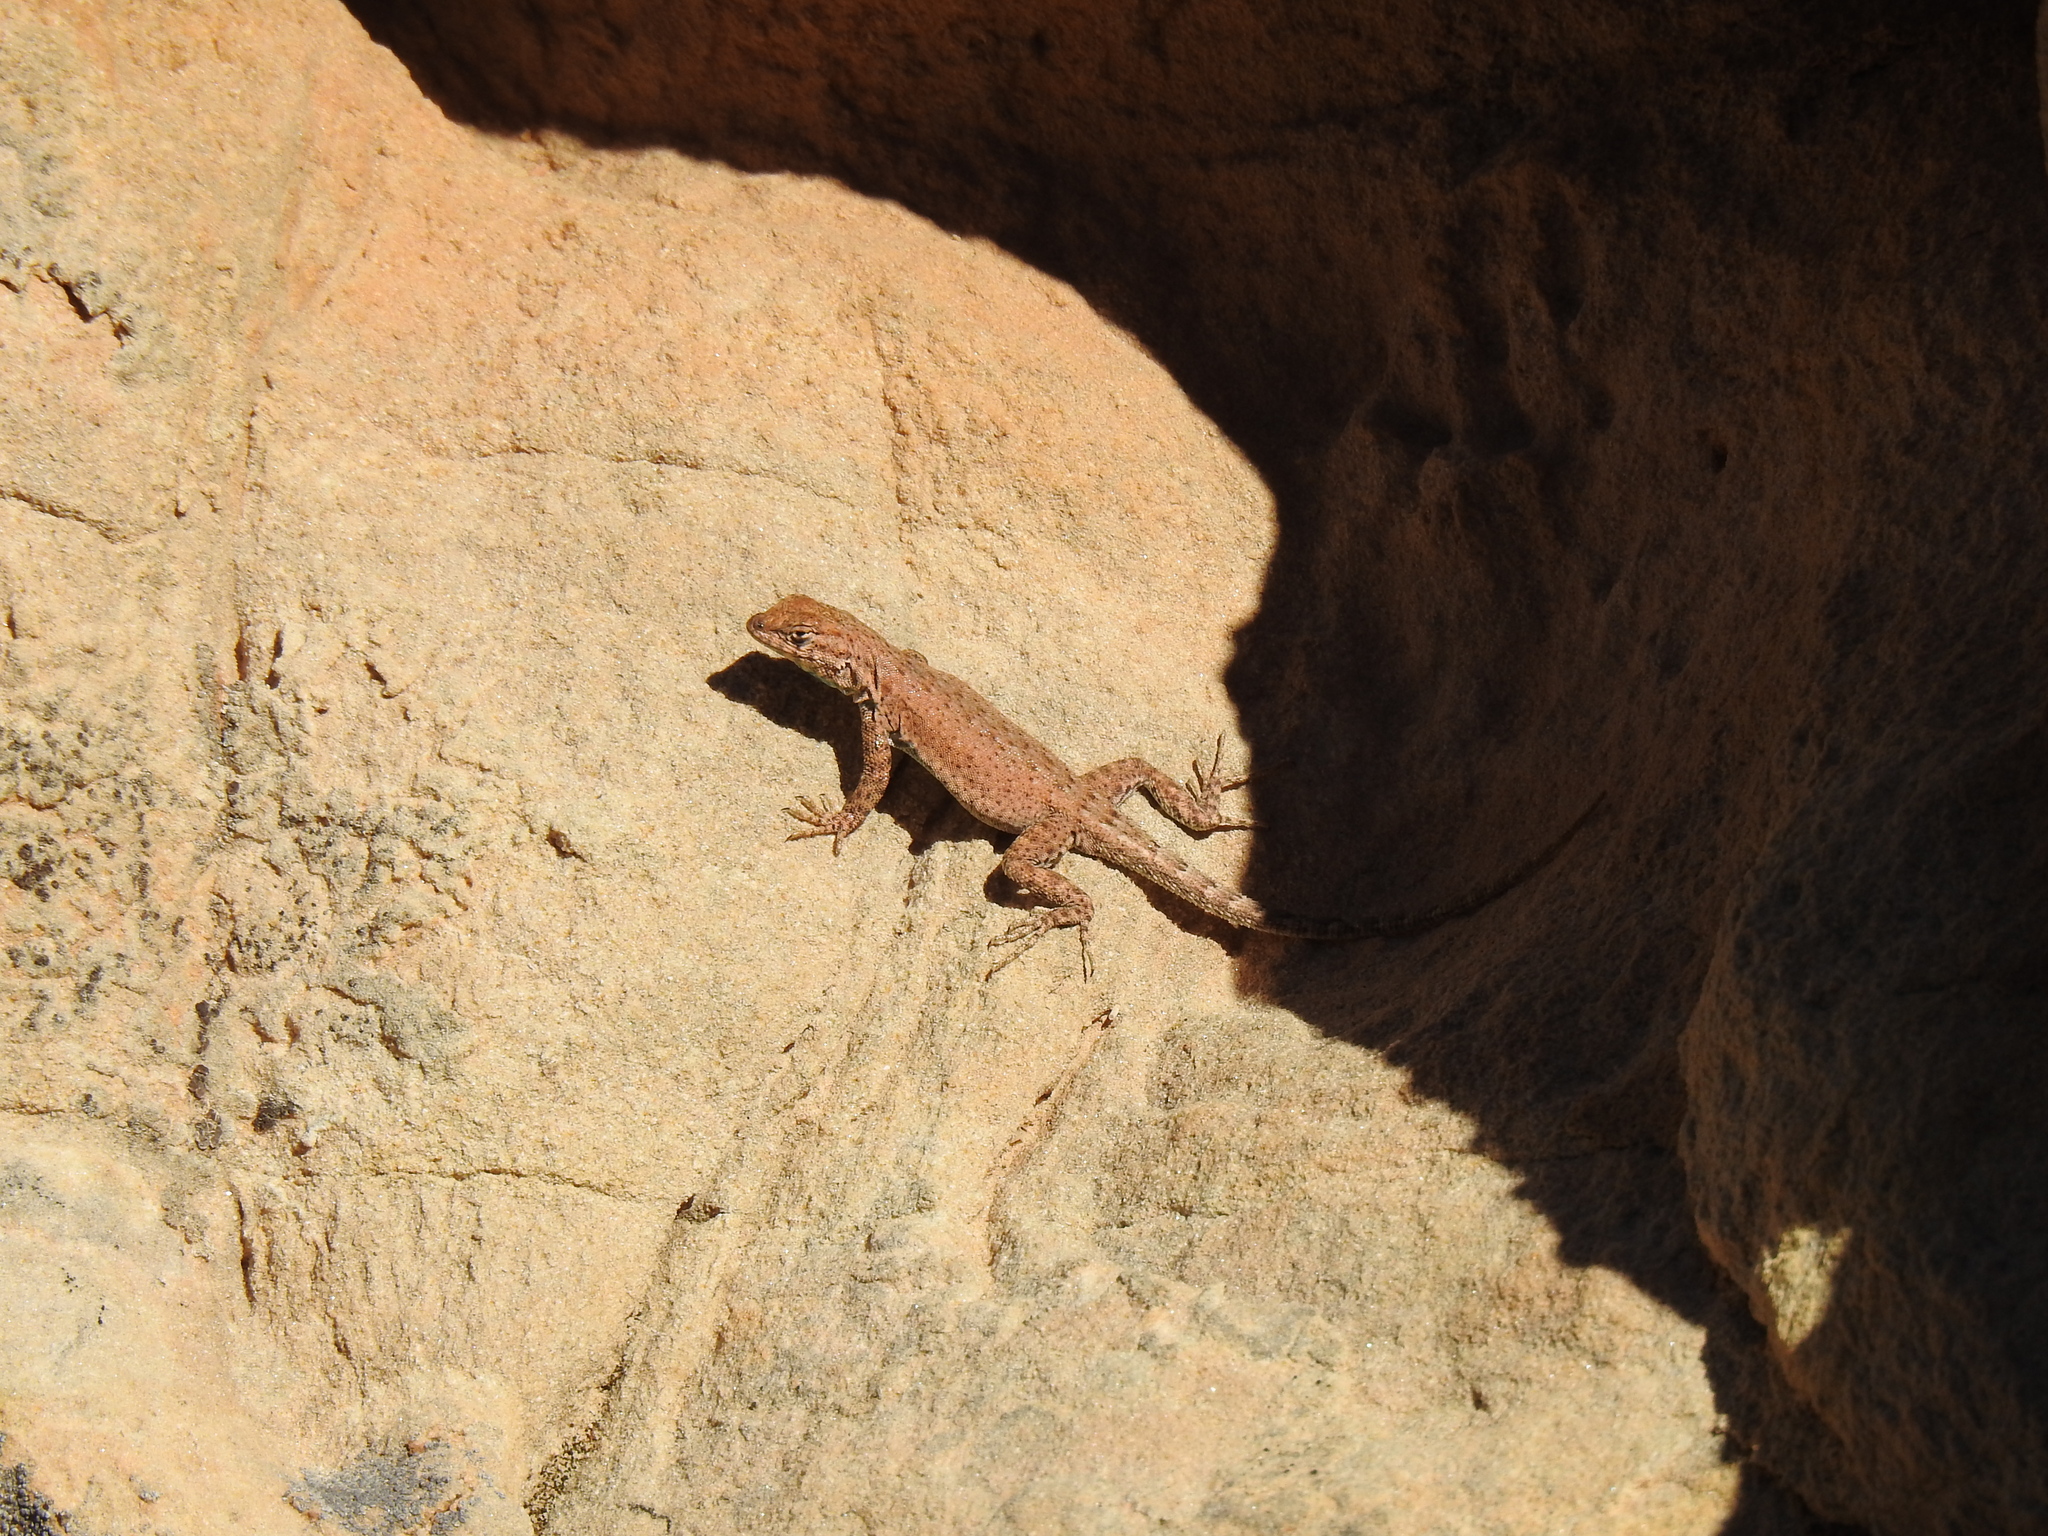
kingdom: Animalia
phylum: Chordata
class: Squamata
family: Phrynosomatidae
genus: Uta
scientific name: Uta stansburiana
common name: Side-blotched lizard
